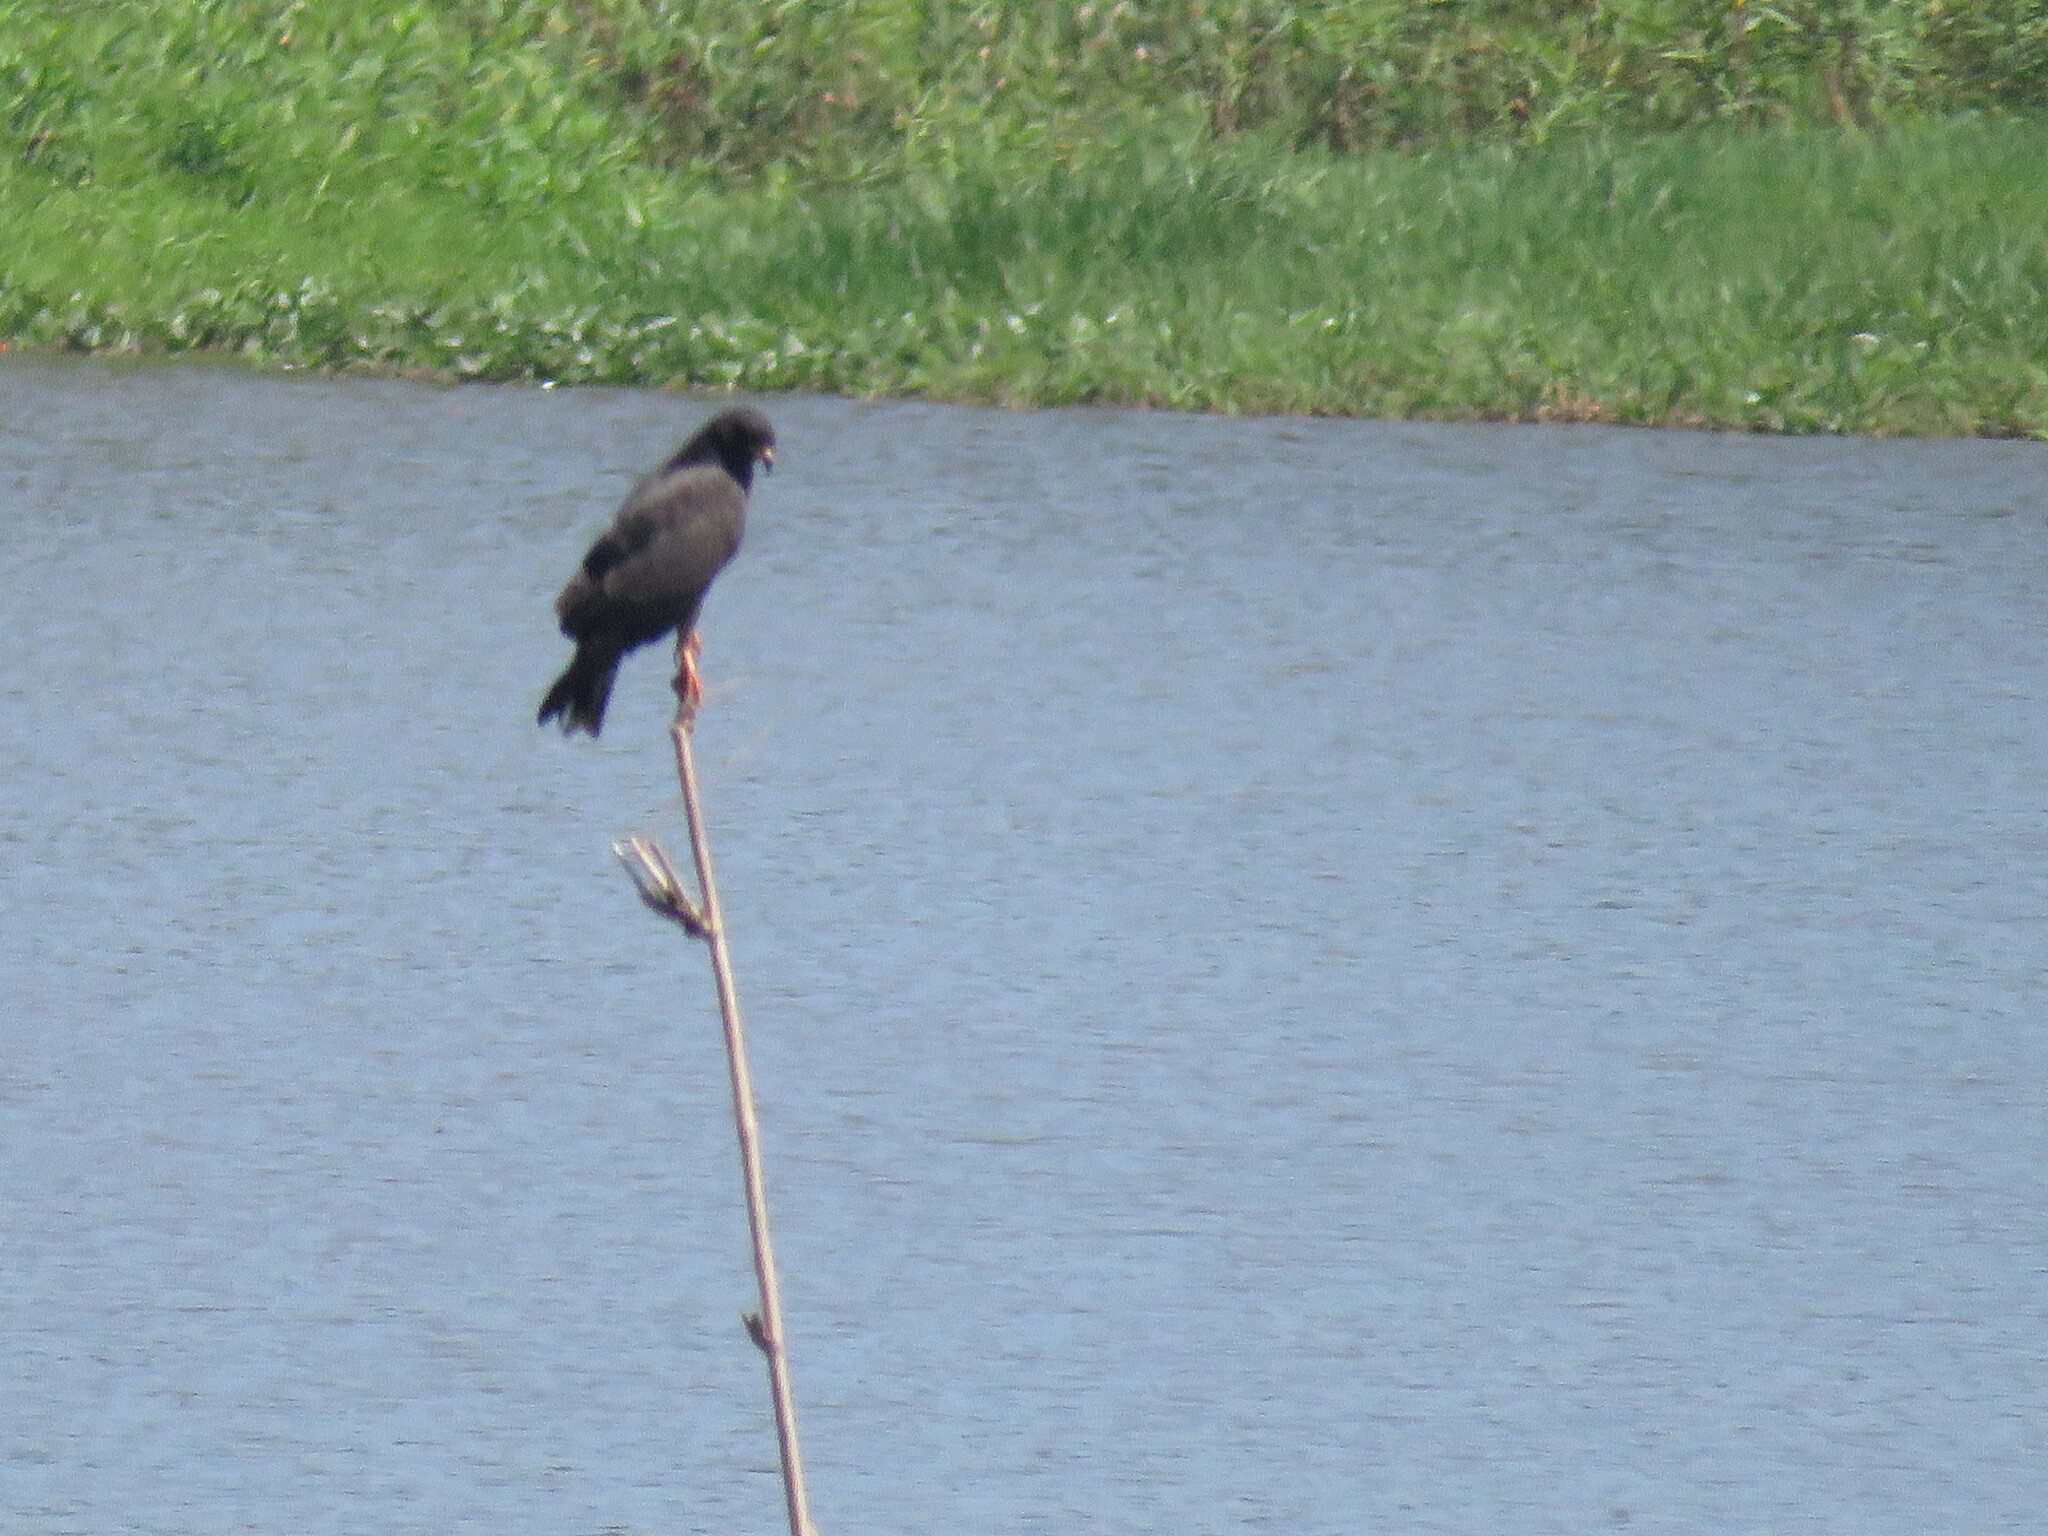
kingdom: Animalia
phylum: Chordata
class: Aves
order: Accipitriformes
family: Accipitridae
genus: Rostrhamus
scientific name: Rostrhamus sociabilis
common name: Snail kite
